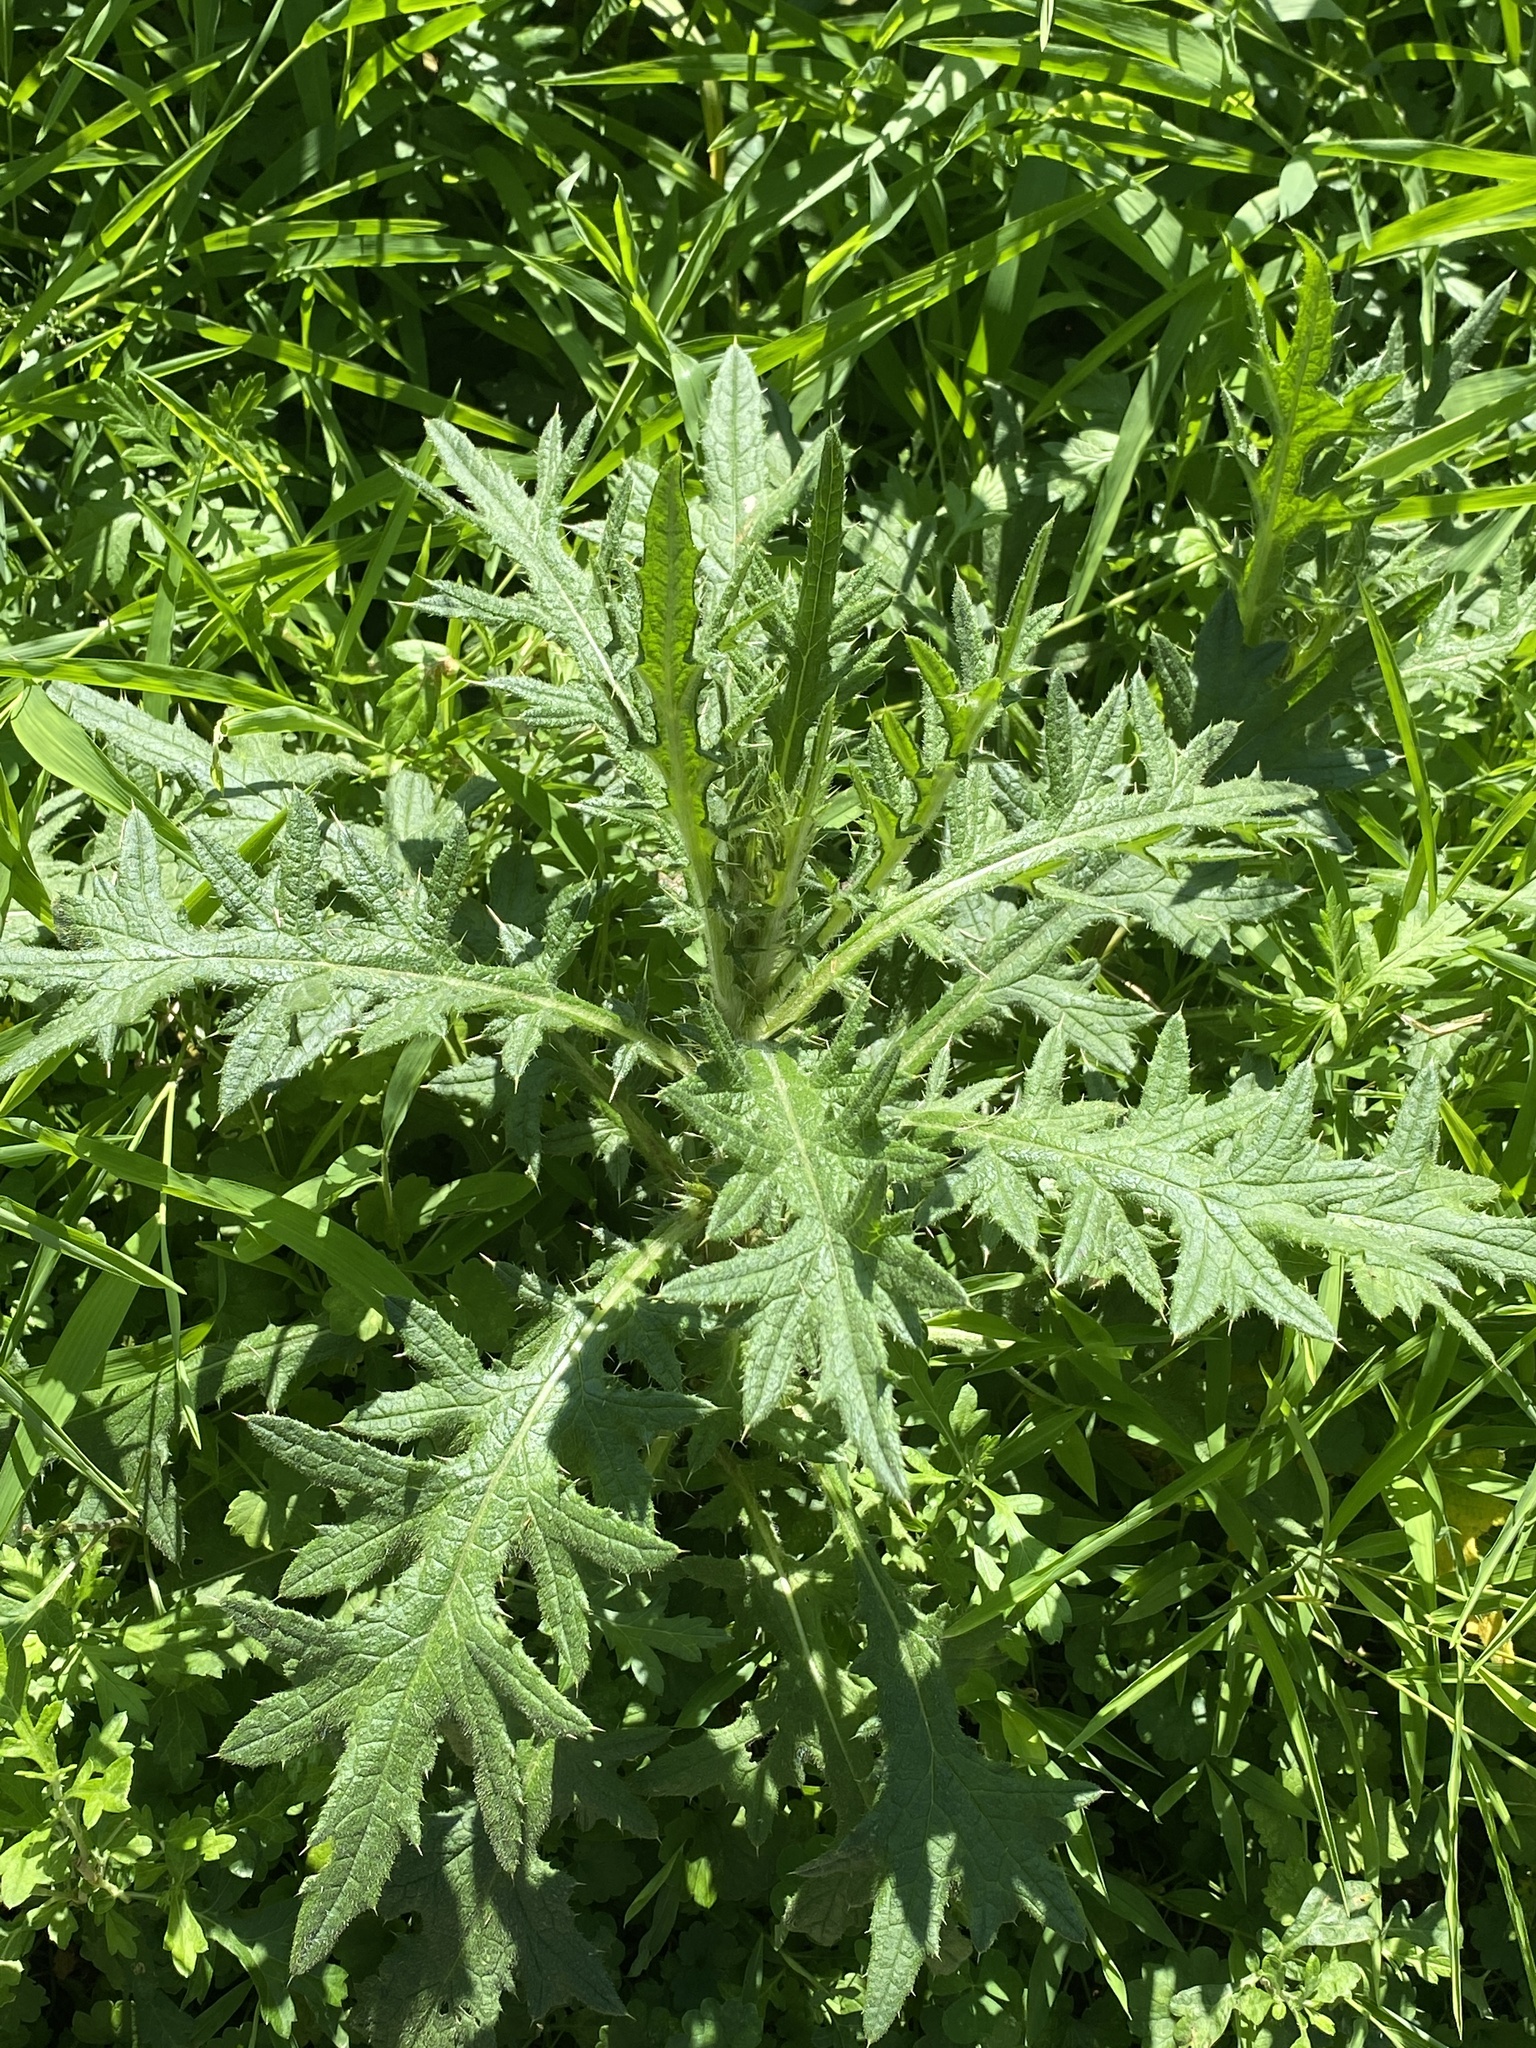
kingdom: Plantae
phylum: Tracheophyta
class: Magnoliopsida
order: Asterales
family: Asteraceae
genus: Cirsium
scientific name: Cirsium vulgare
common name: Bull thistle
